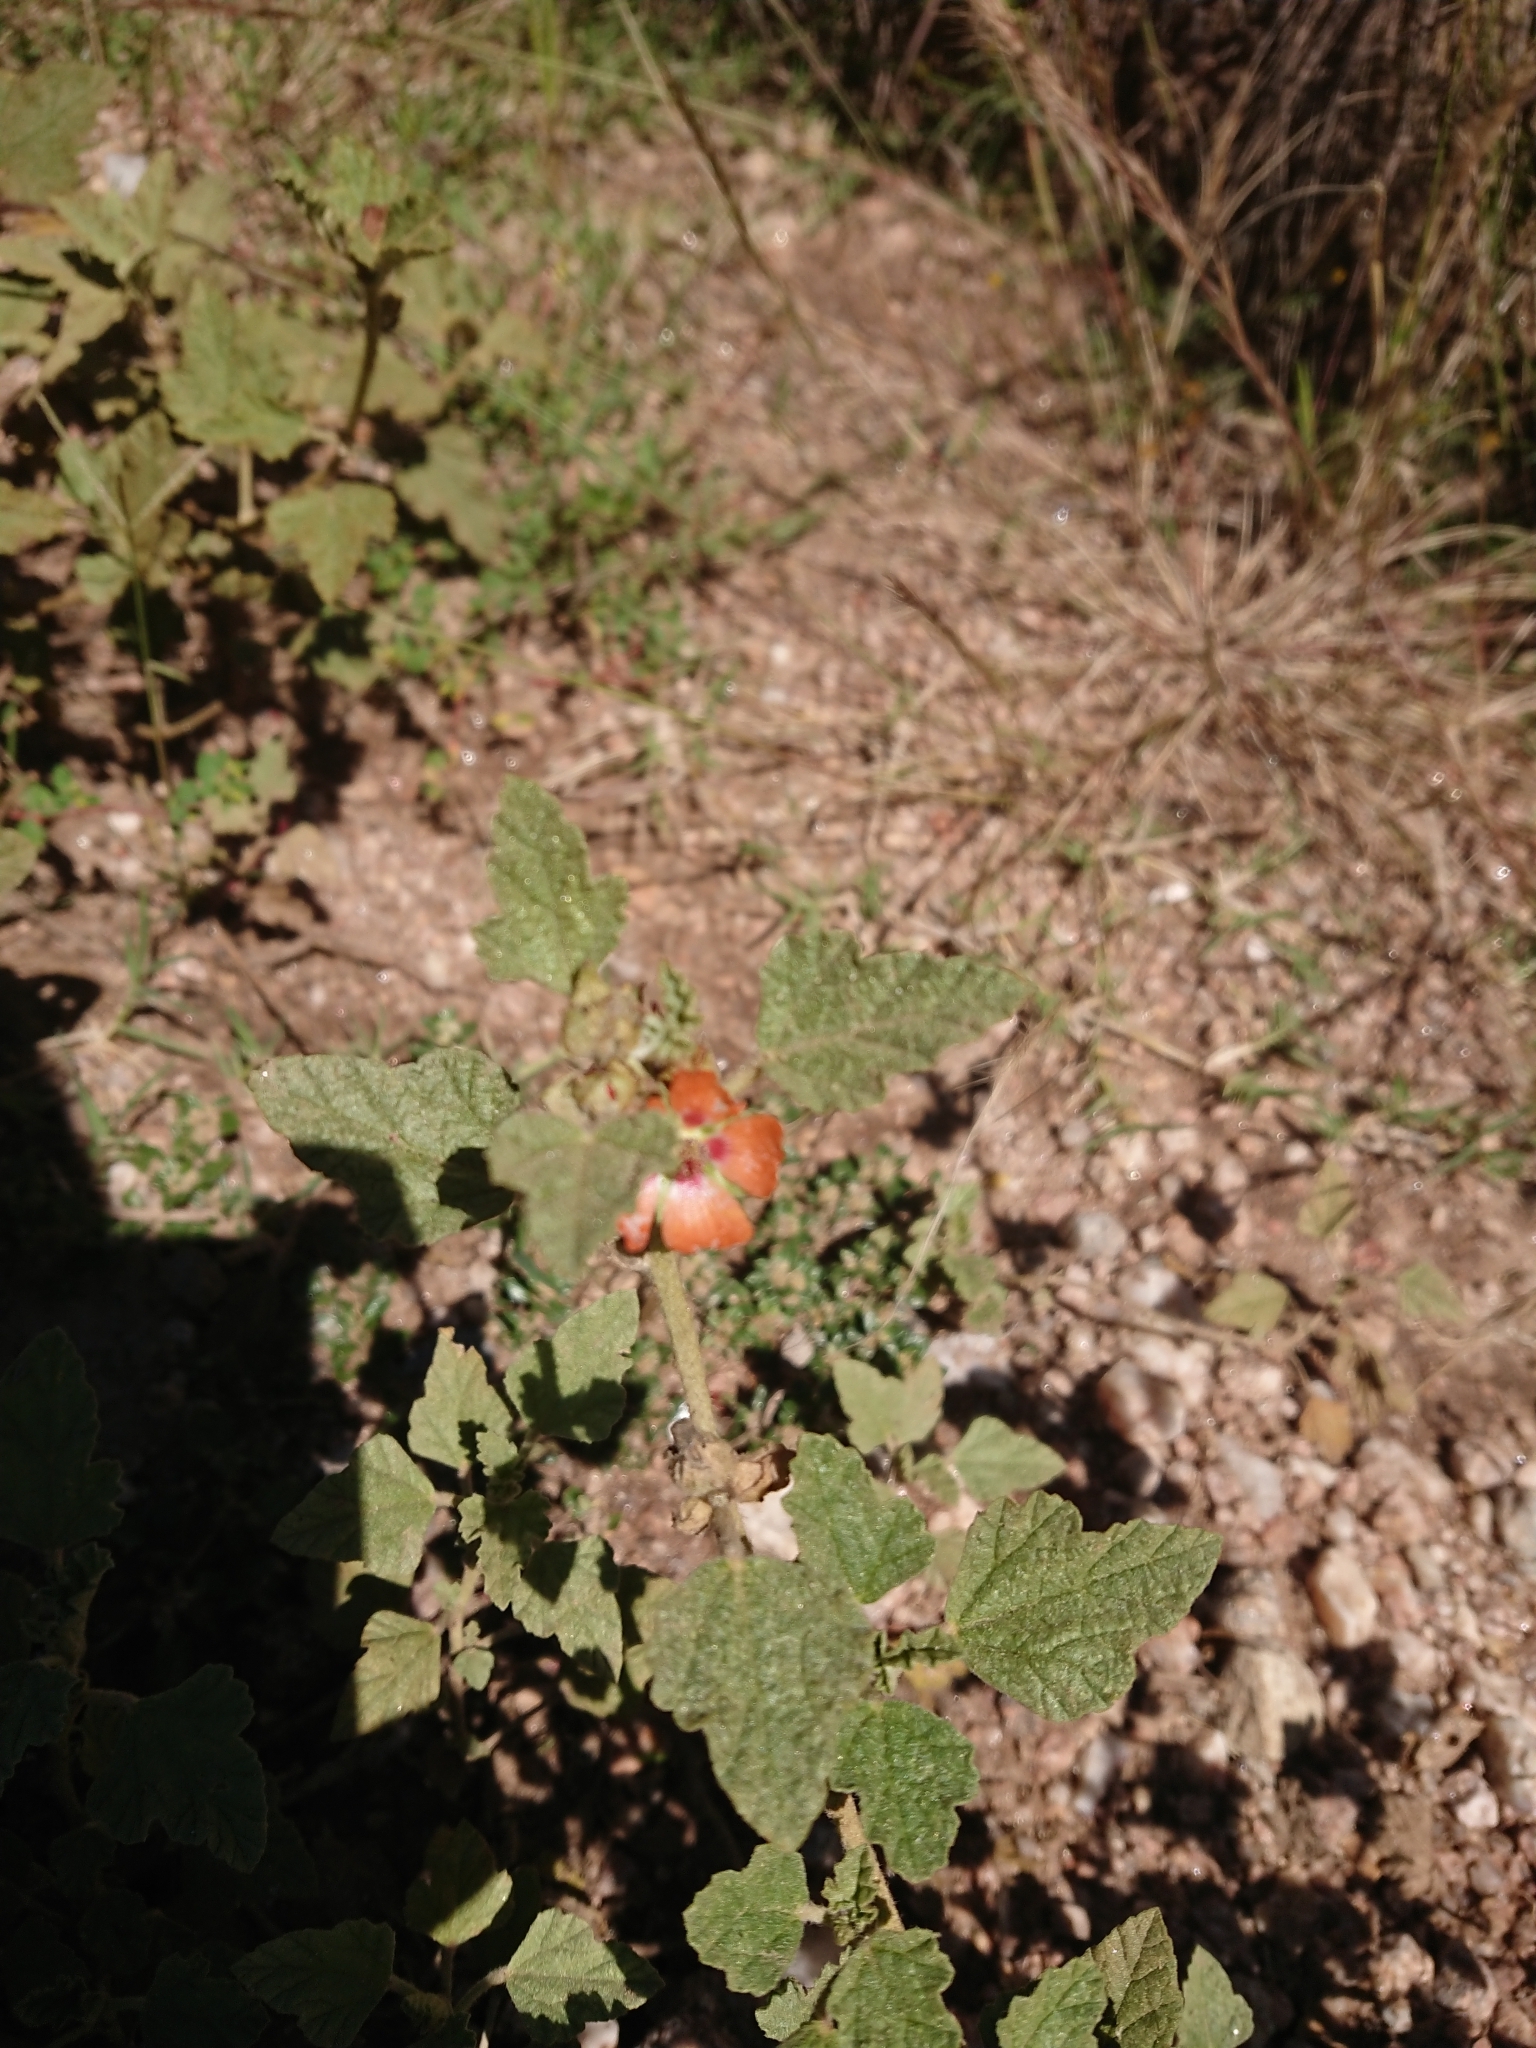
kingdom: Plantae
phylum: Tracheophyta
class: Magnoliopsida
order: Malvales
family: Malvaceae
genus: Sphaeralcea
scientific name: Sphaeralcea cordobensis
